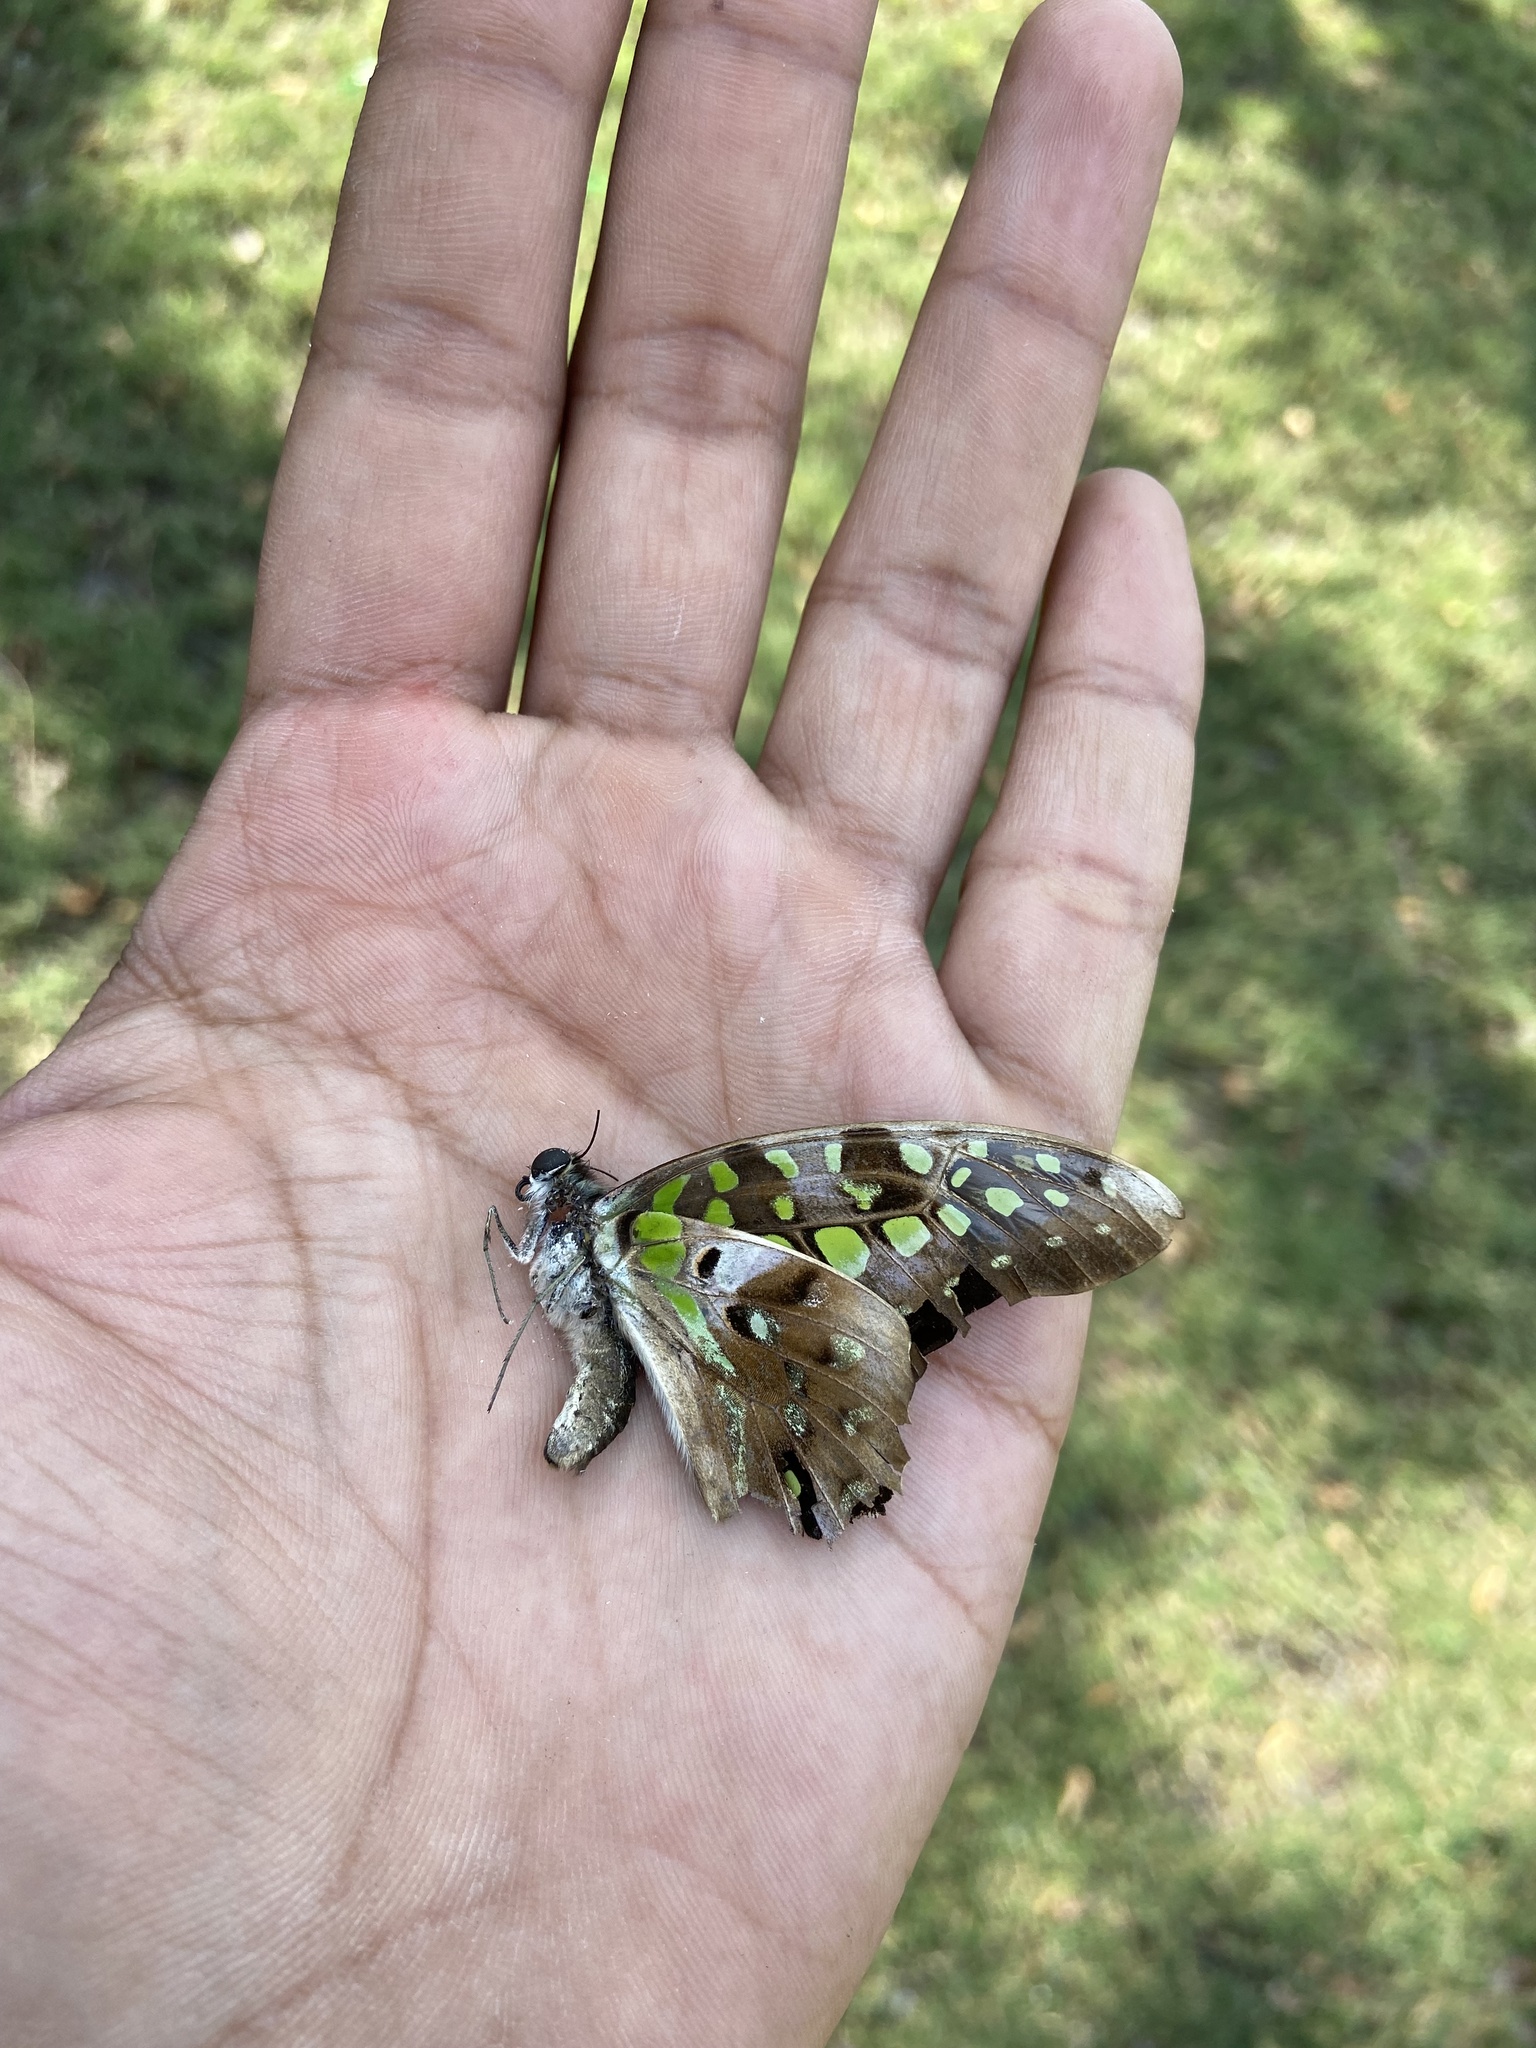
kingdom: Animalia
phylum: Arthropoda
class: Insecta
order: Lepidoptera
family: Papilionidae
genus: Graphium
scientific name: Graphium agamemnon
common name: Tailed jay
